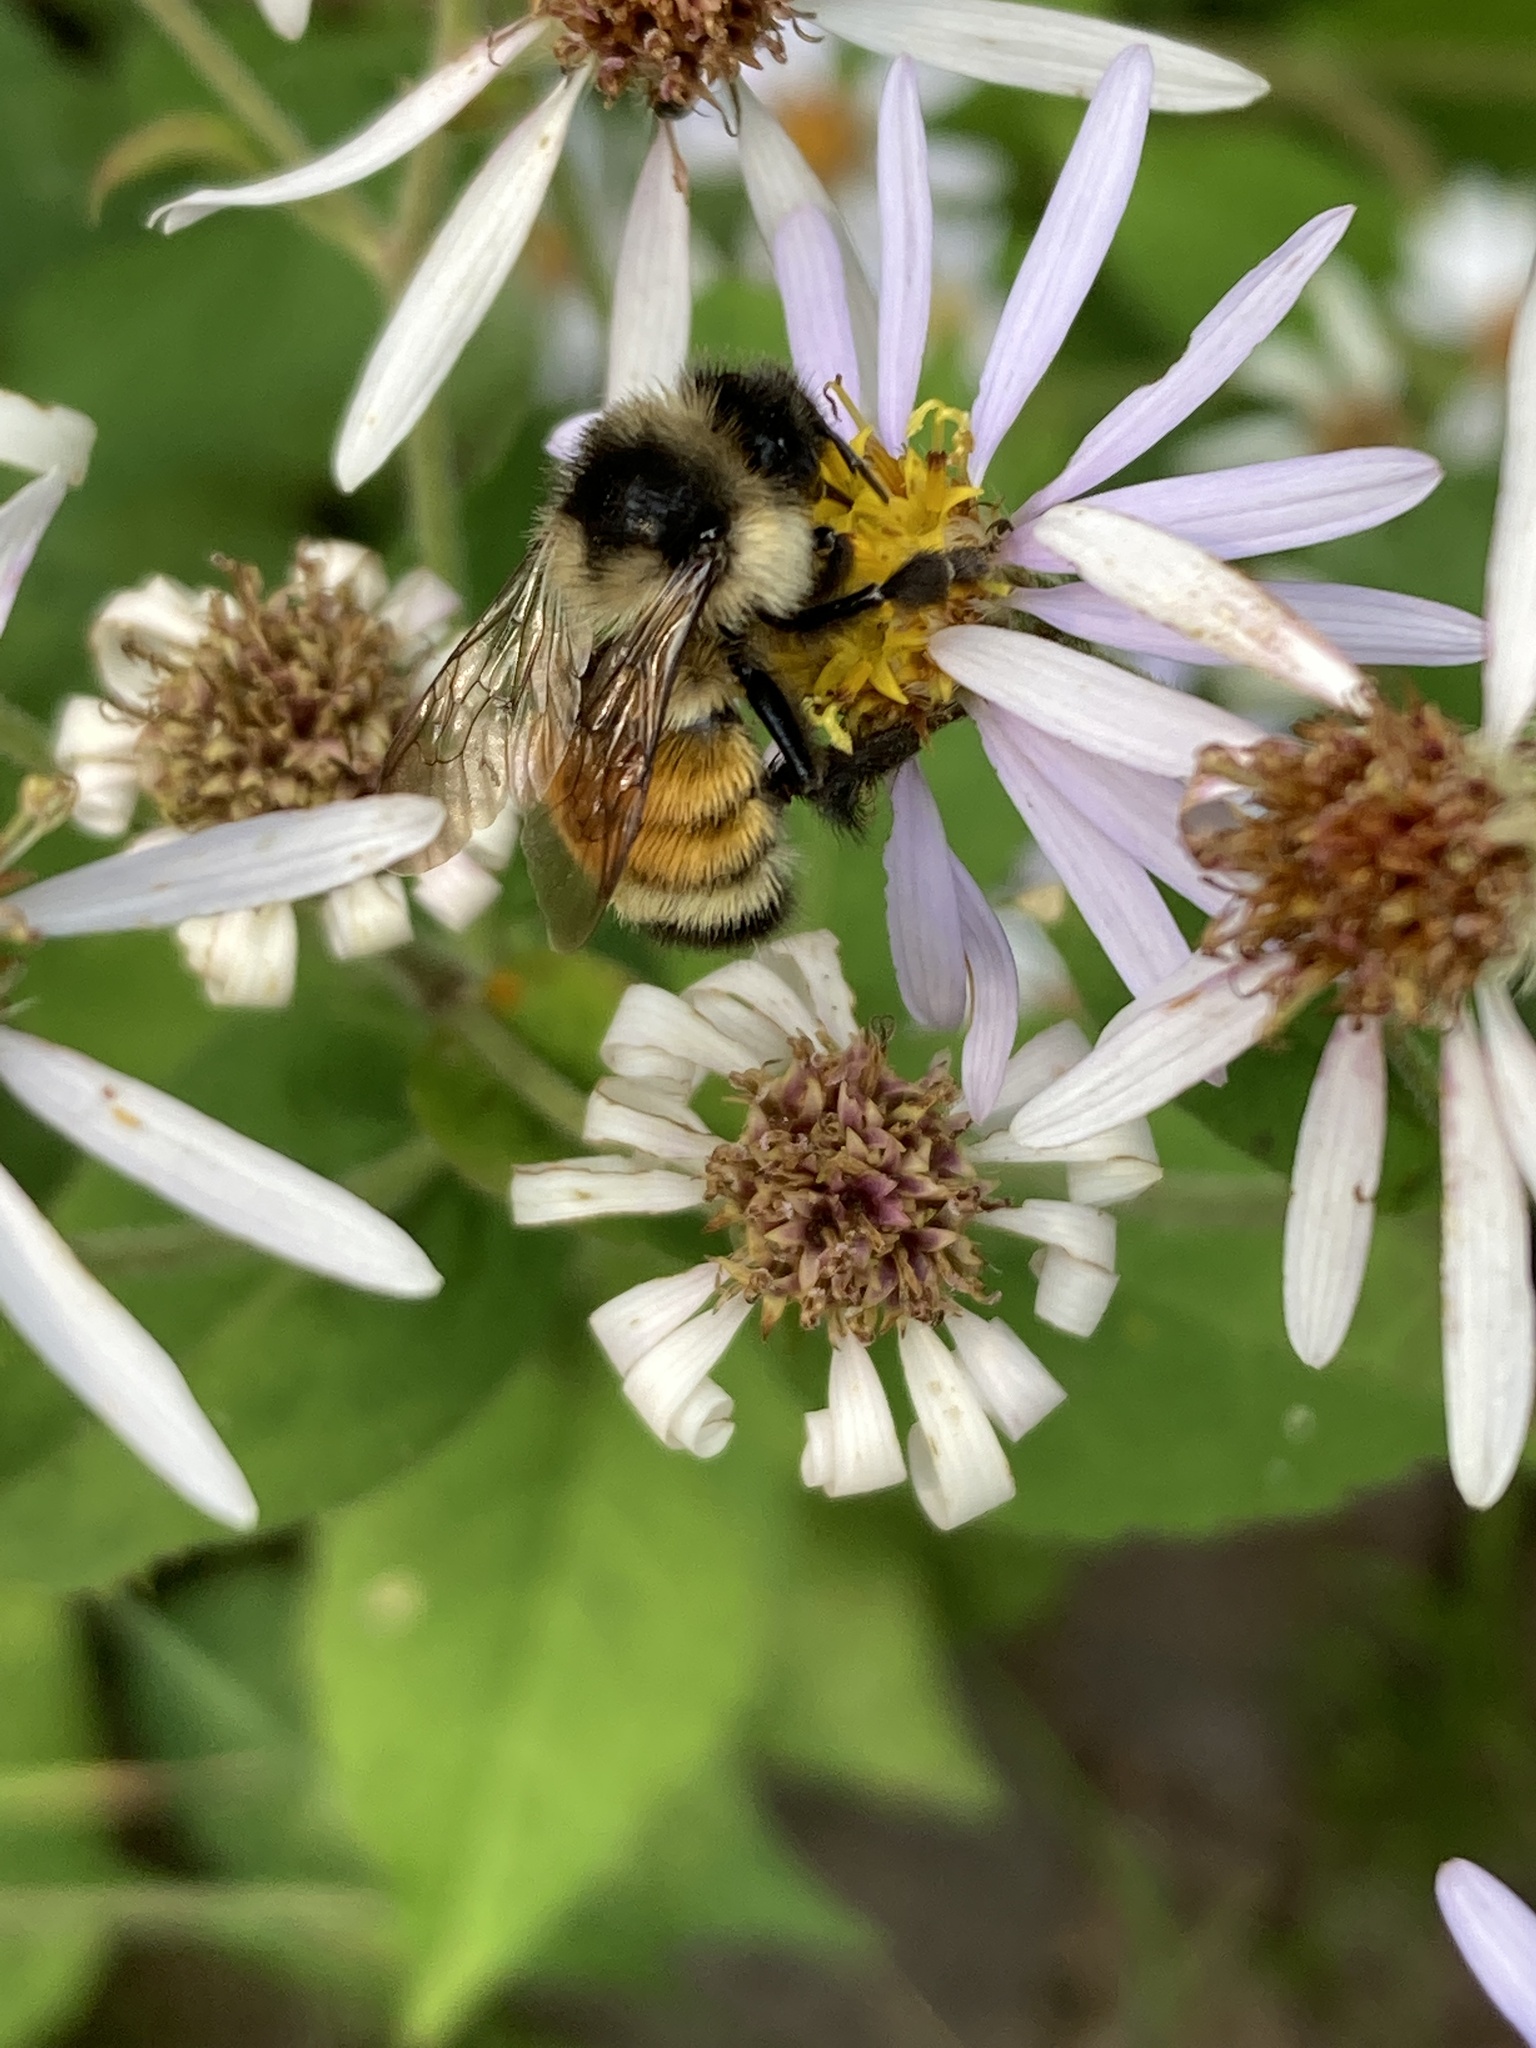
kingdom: Animalia
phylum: Arthropoda
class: Insecta
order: Hymenoptera
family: Apidae
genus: Bombus
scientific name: Bombus ternarius
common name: Tri-colored bumble bee
